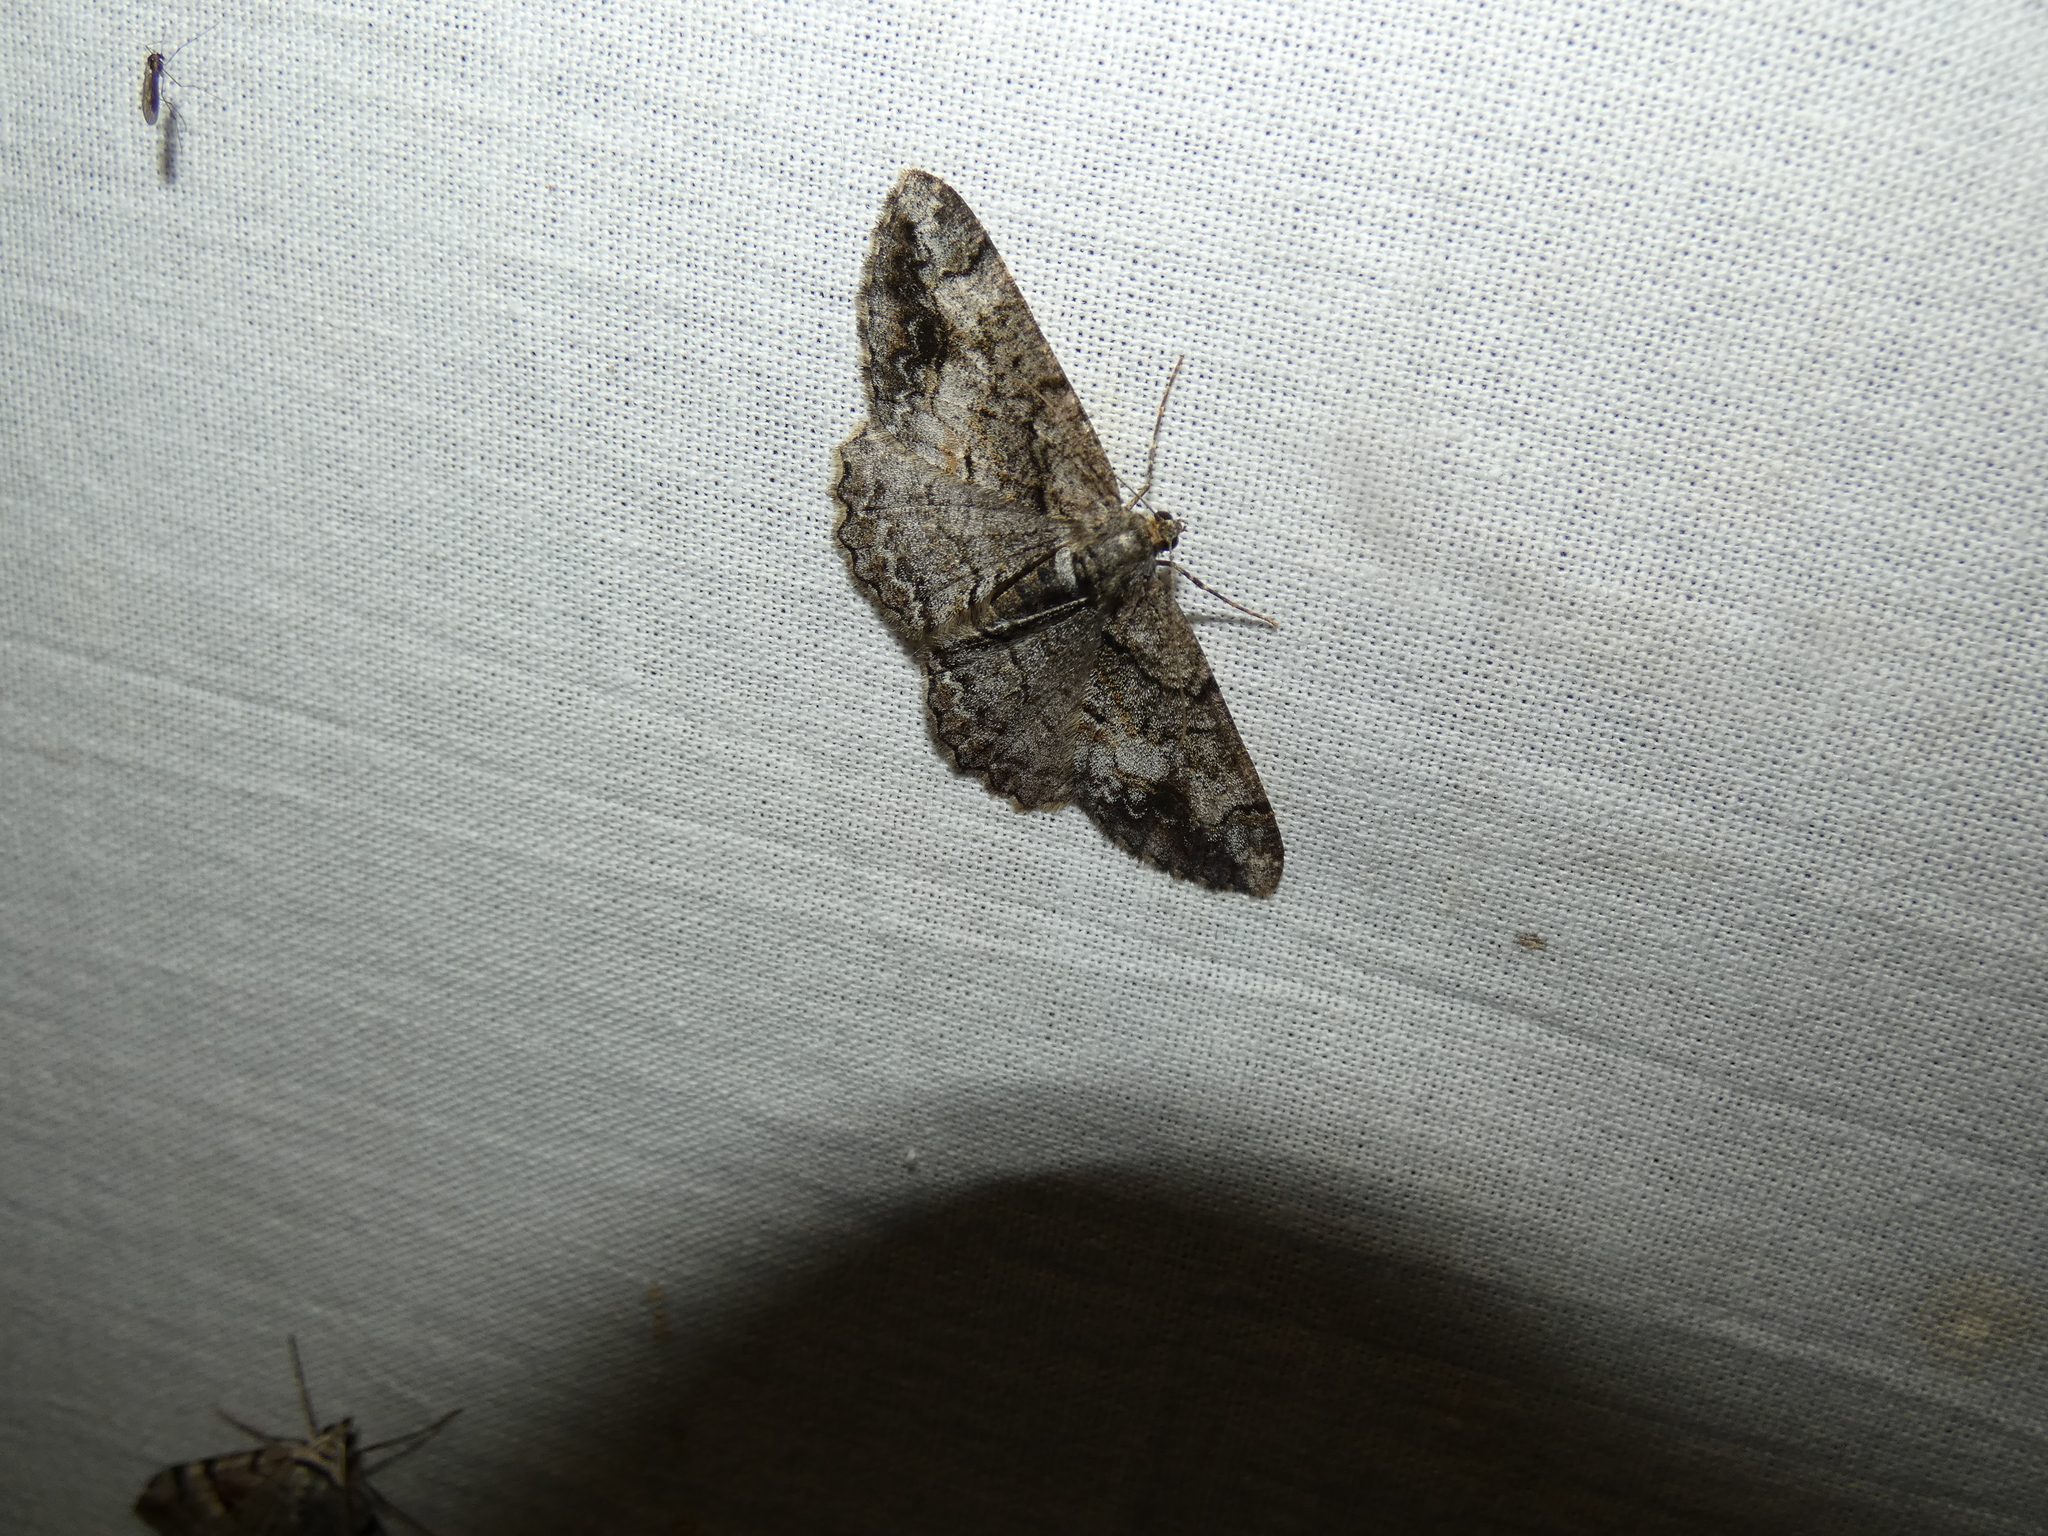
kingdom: Animalia
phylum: Arthropoda
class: Insecta
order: Lepidoptera
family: Geometridae
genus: Alcis
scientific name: Alcis deversata
